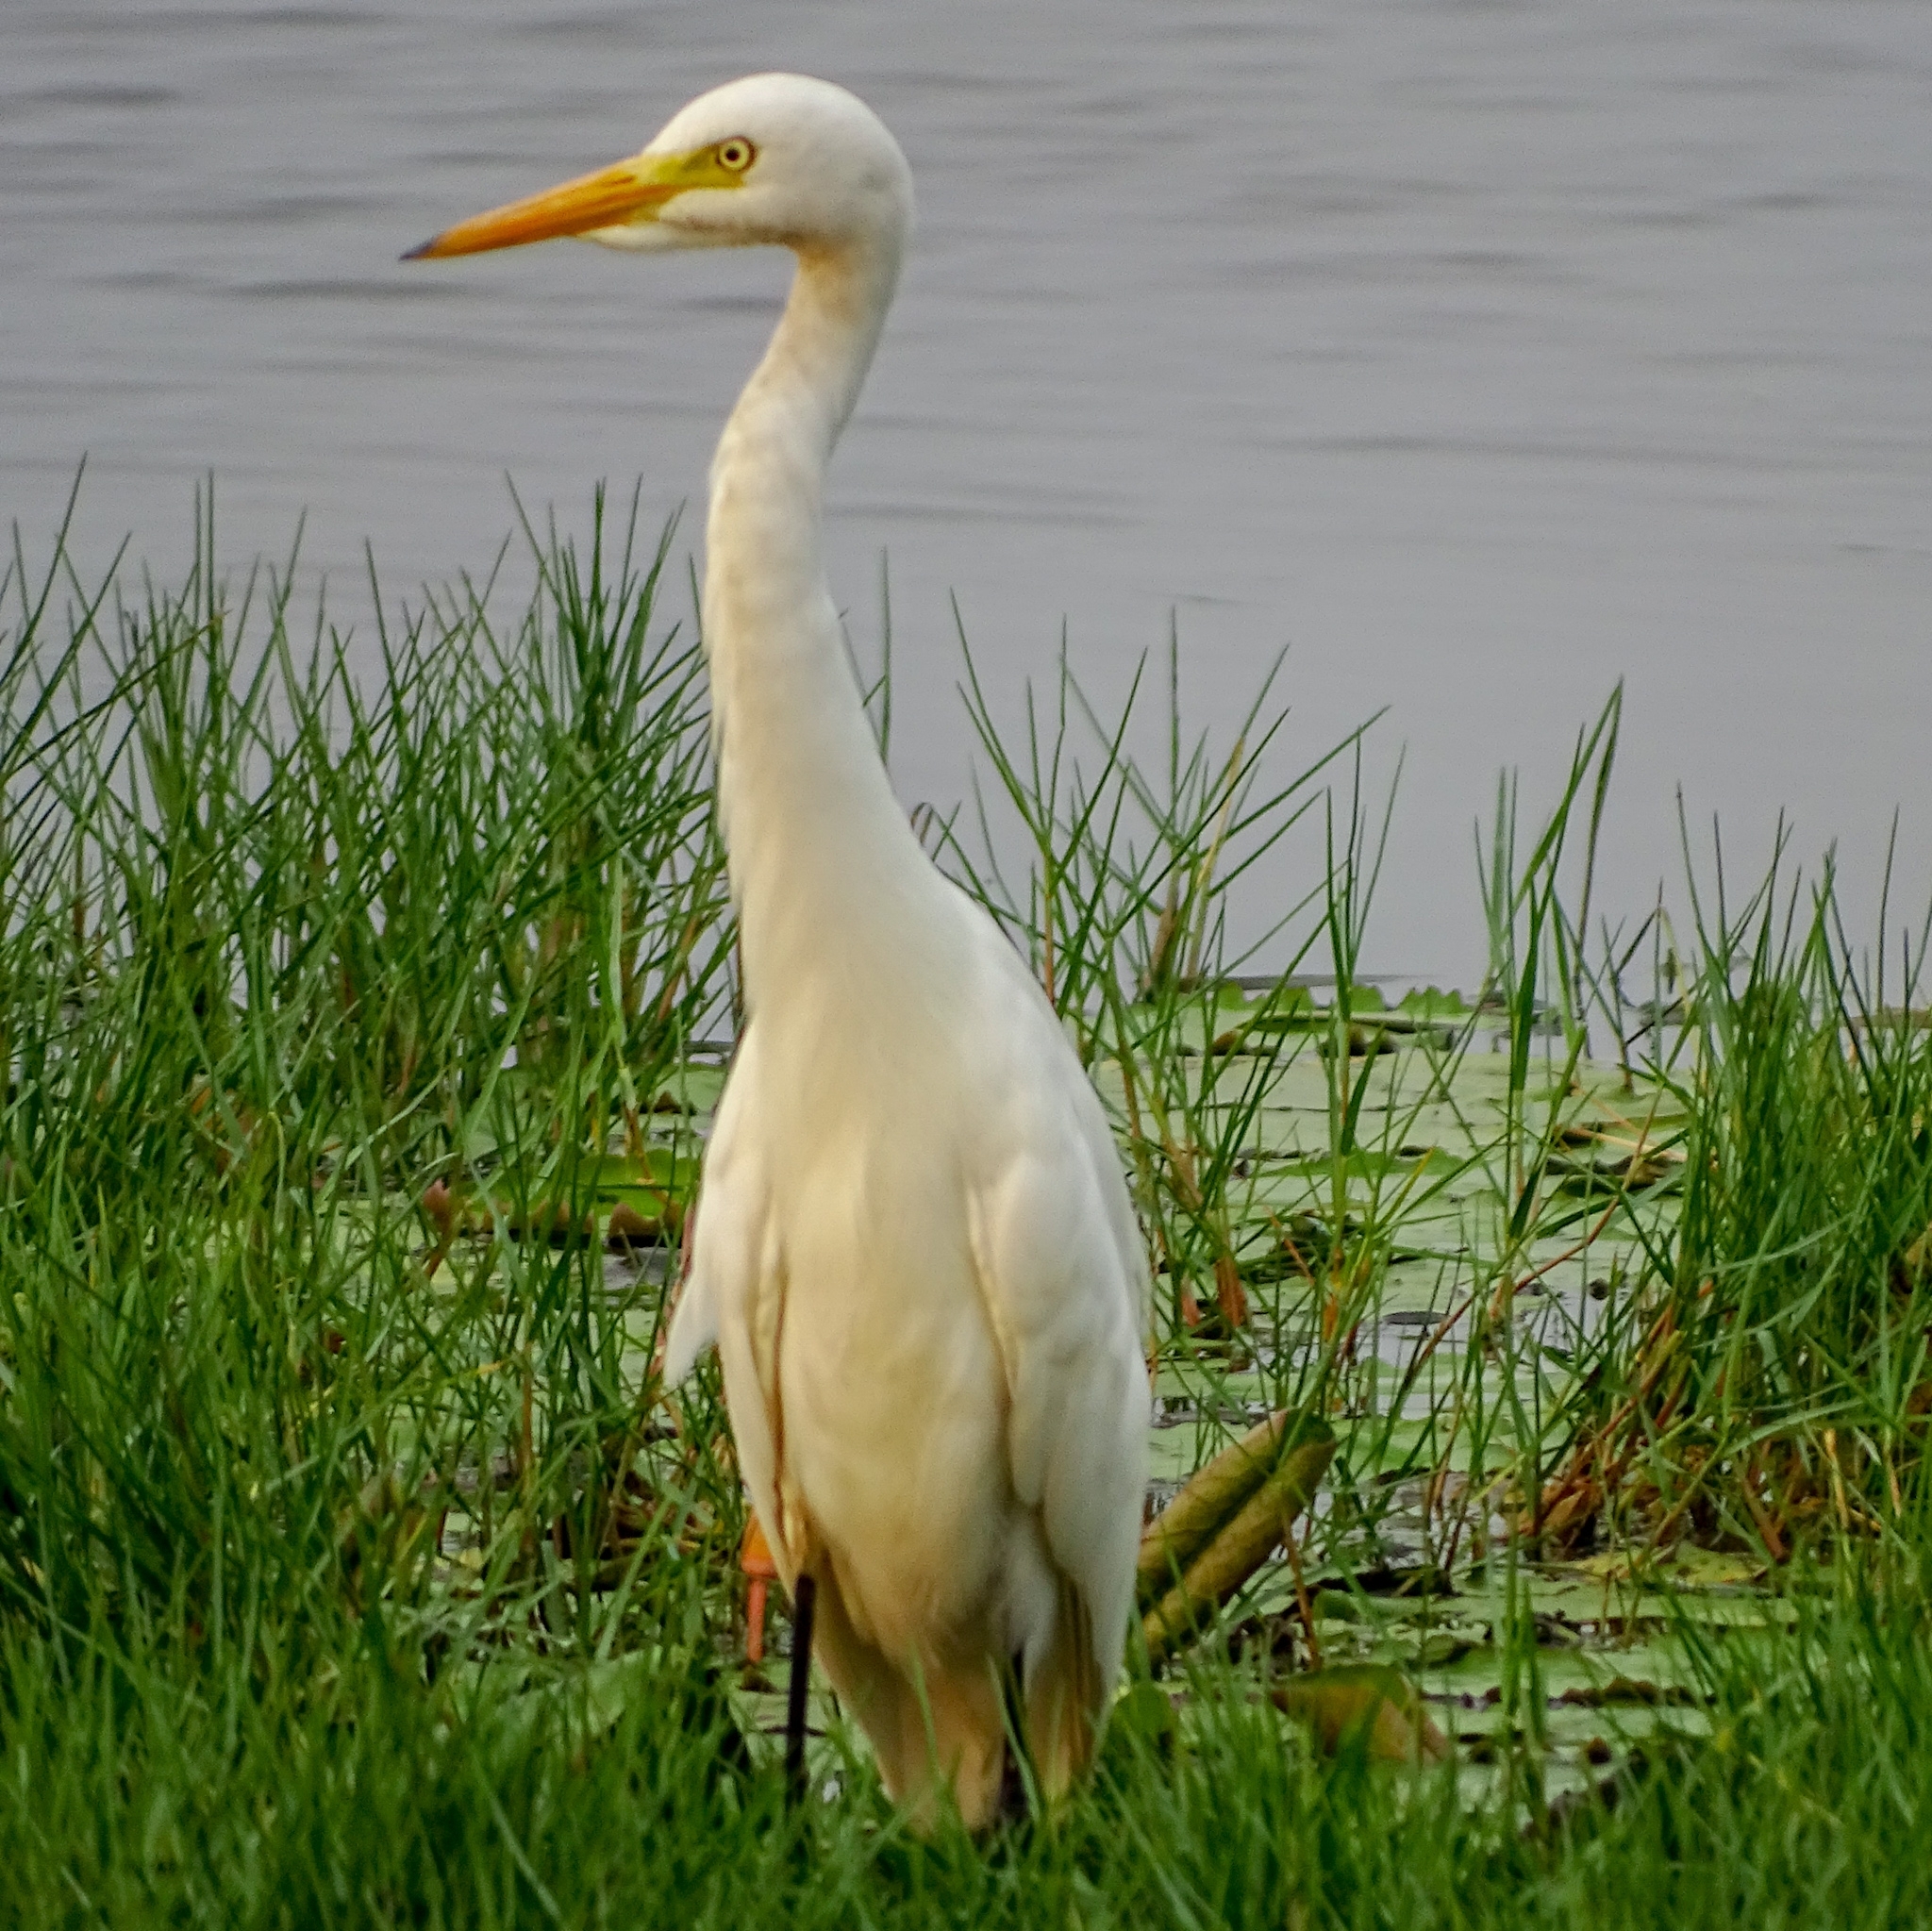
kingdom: Animalia
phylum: Chordata
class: Aves
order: Pelecaniformes
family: Ardeidae
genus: Egretta
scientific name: Egretta intermedia
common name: Intermediate egret
